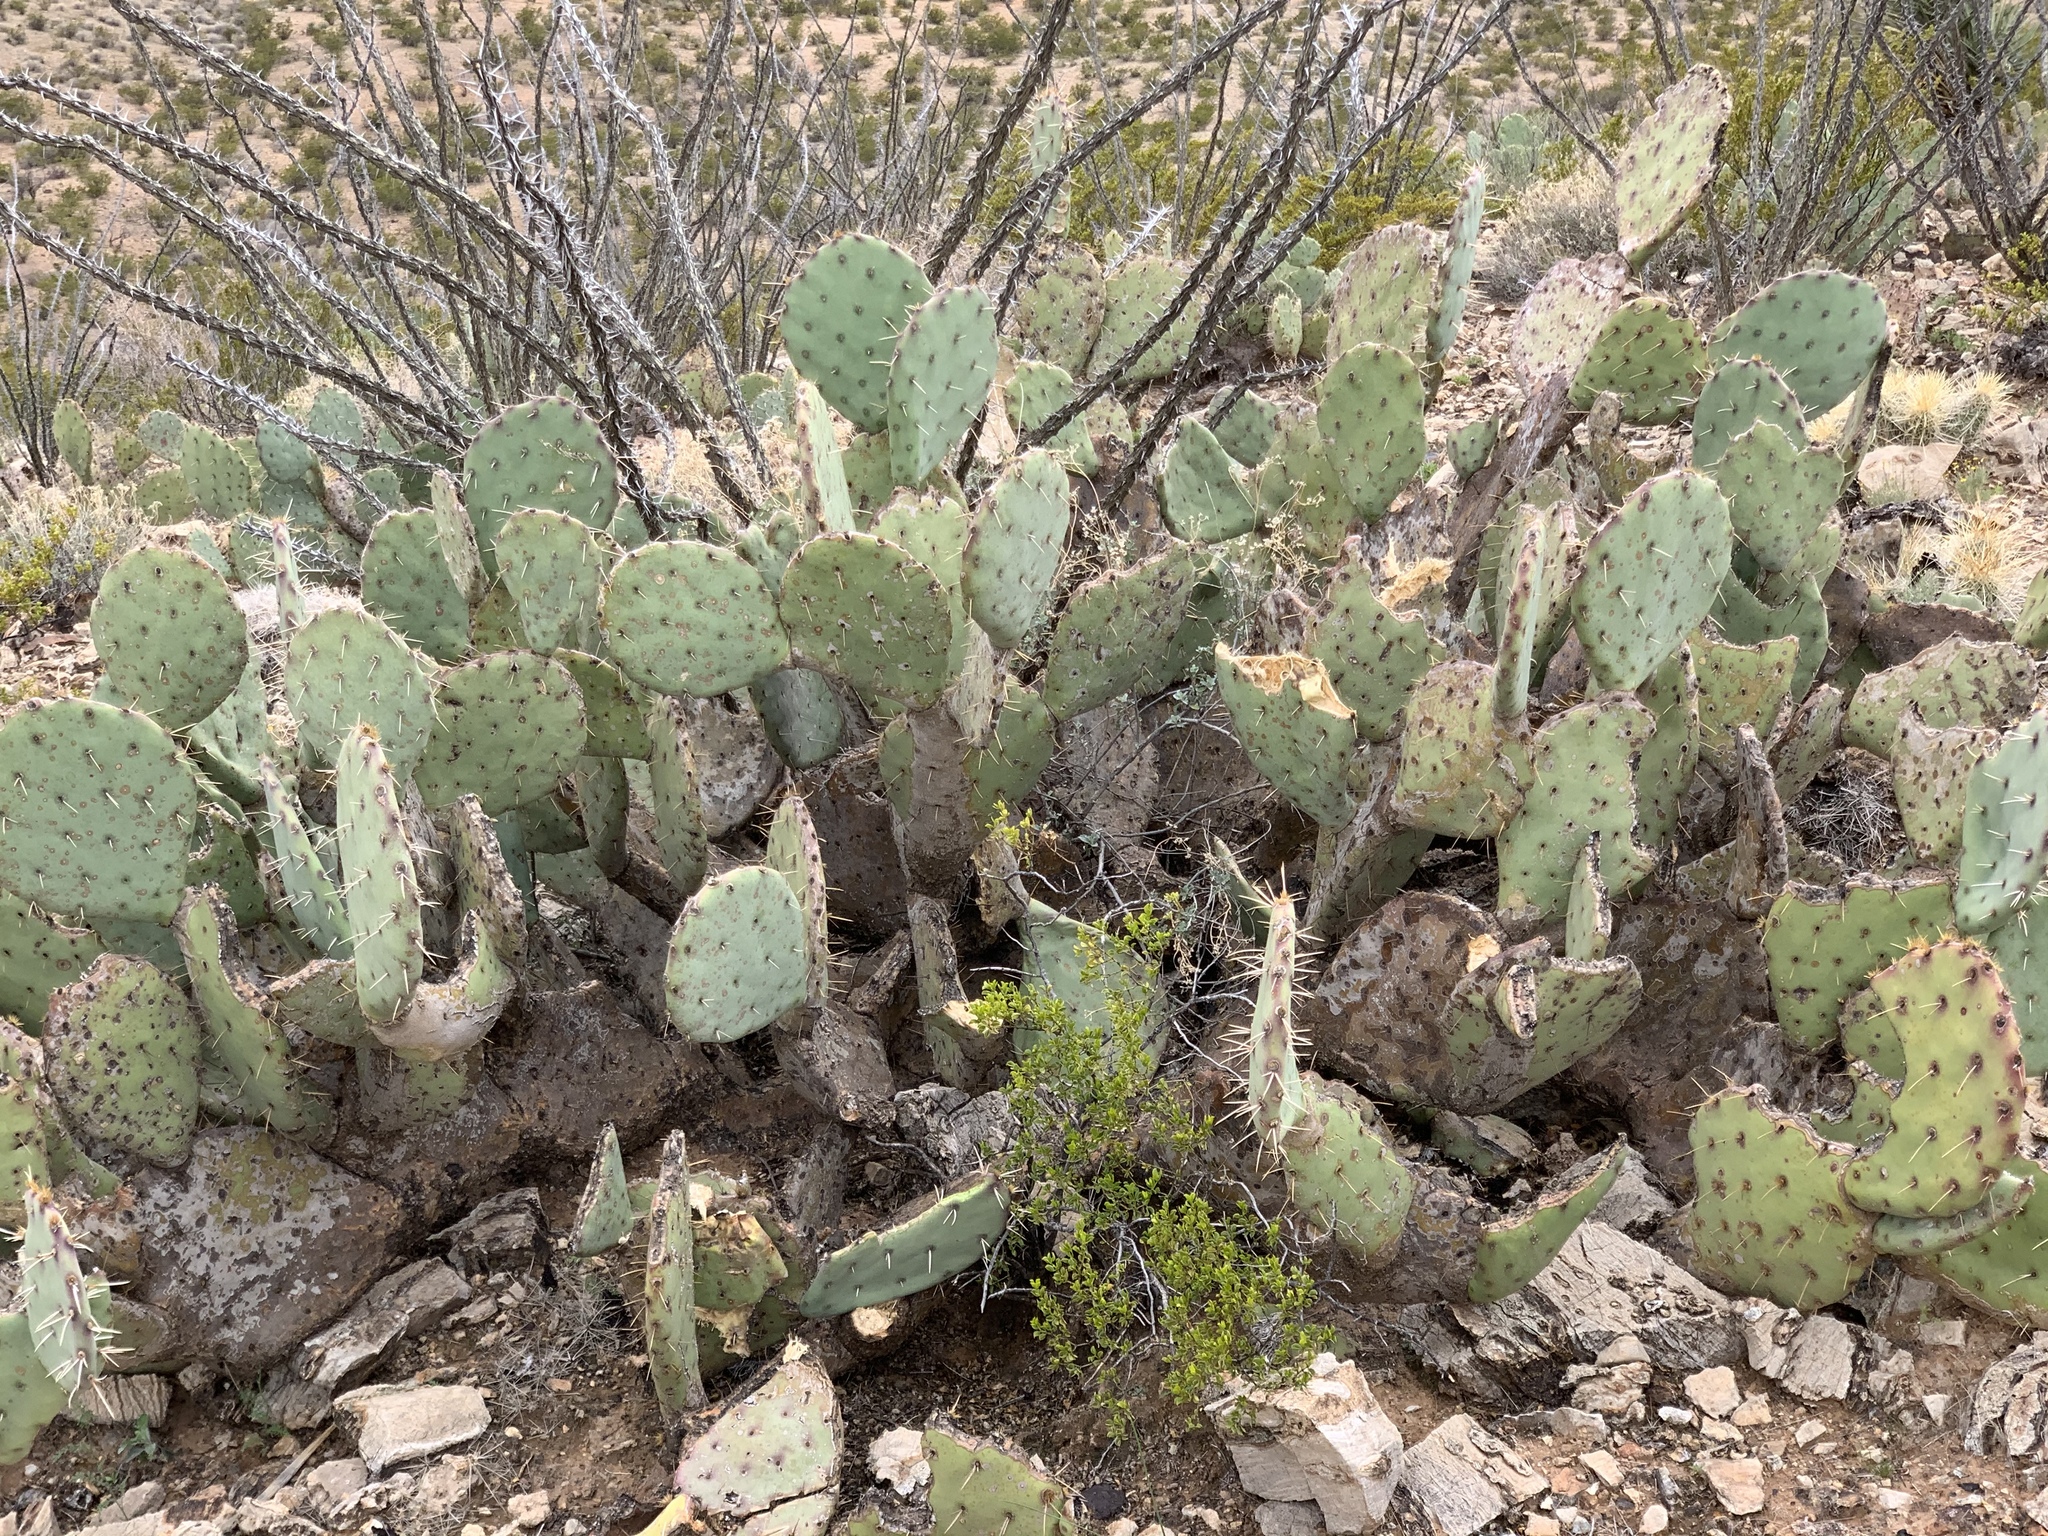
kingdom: Plantae
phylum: Tracheophyta
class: Magnoliopsida
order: Caryophyllales
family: Cactaceae
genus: Opuntia
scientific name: Opuntia engelmannii
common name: Cactus-apple
